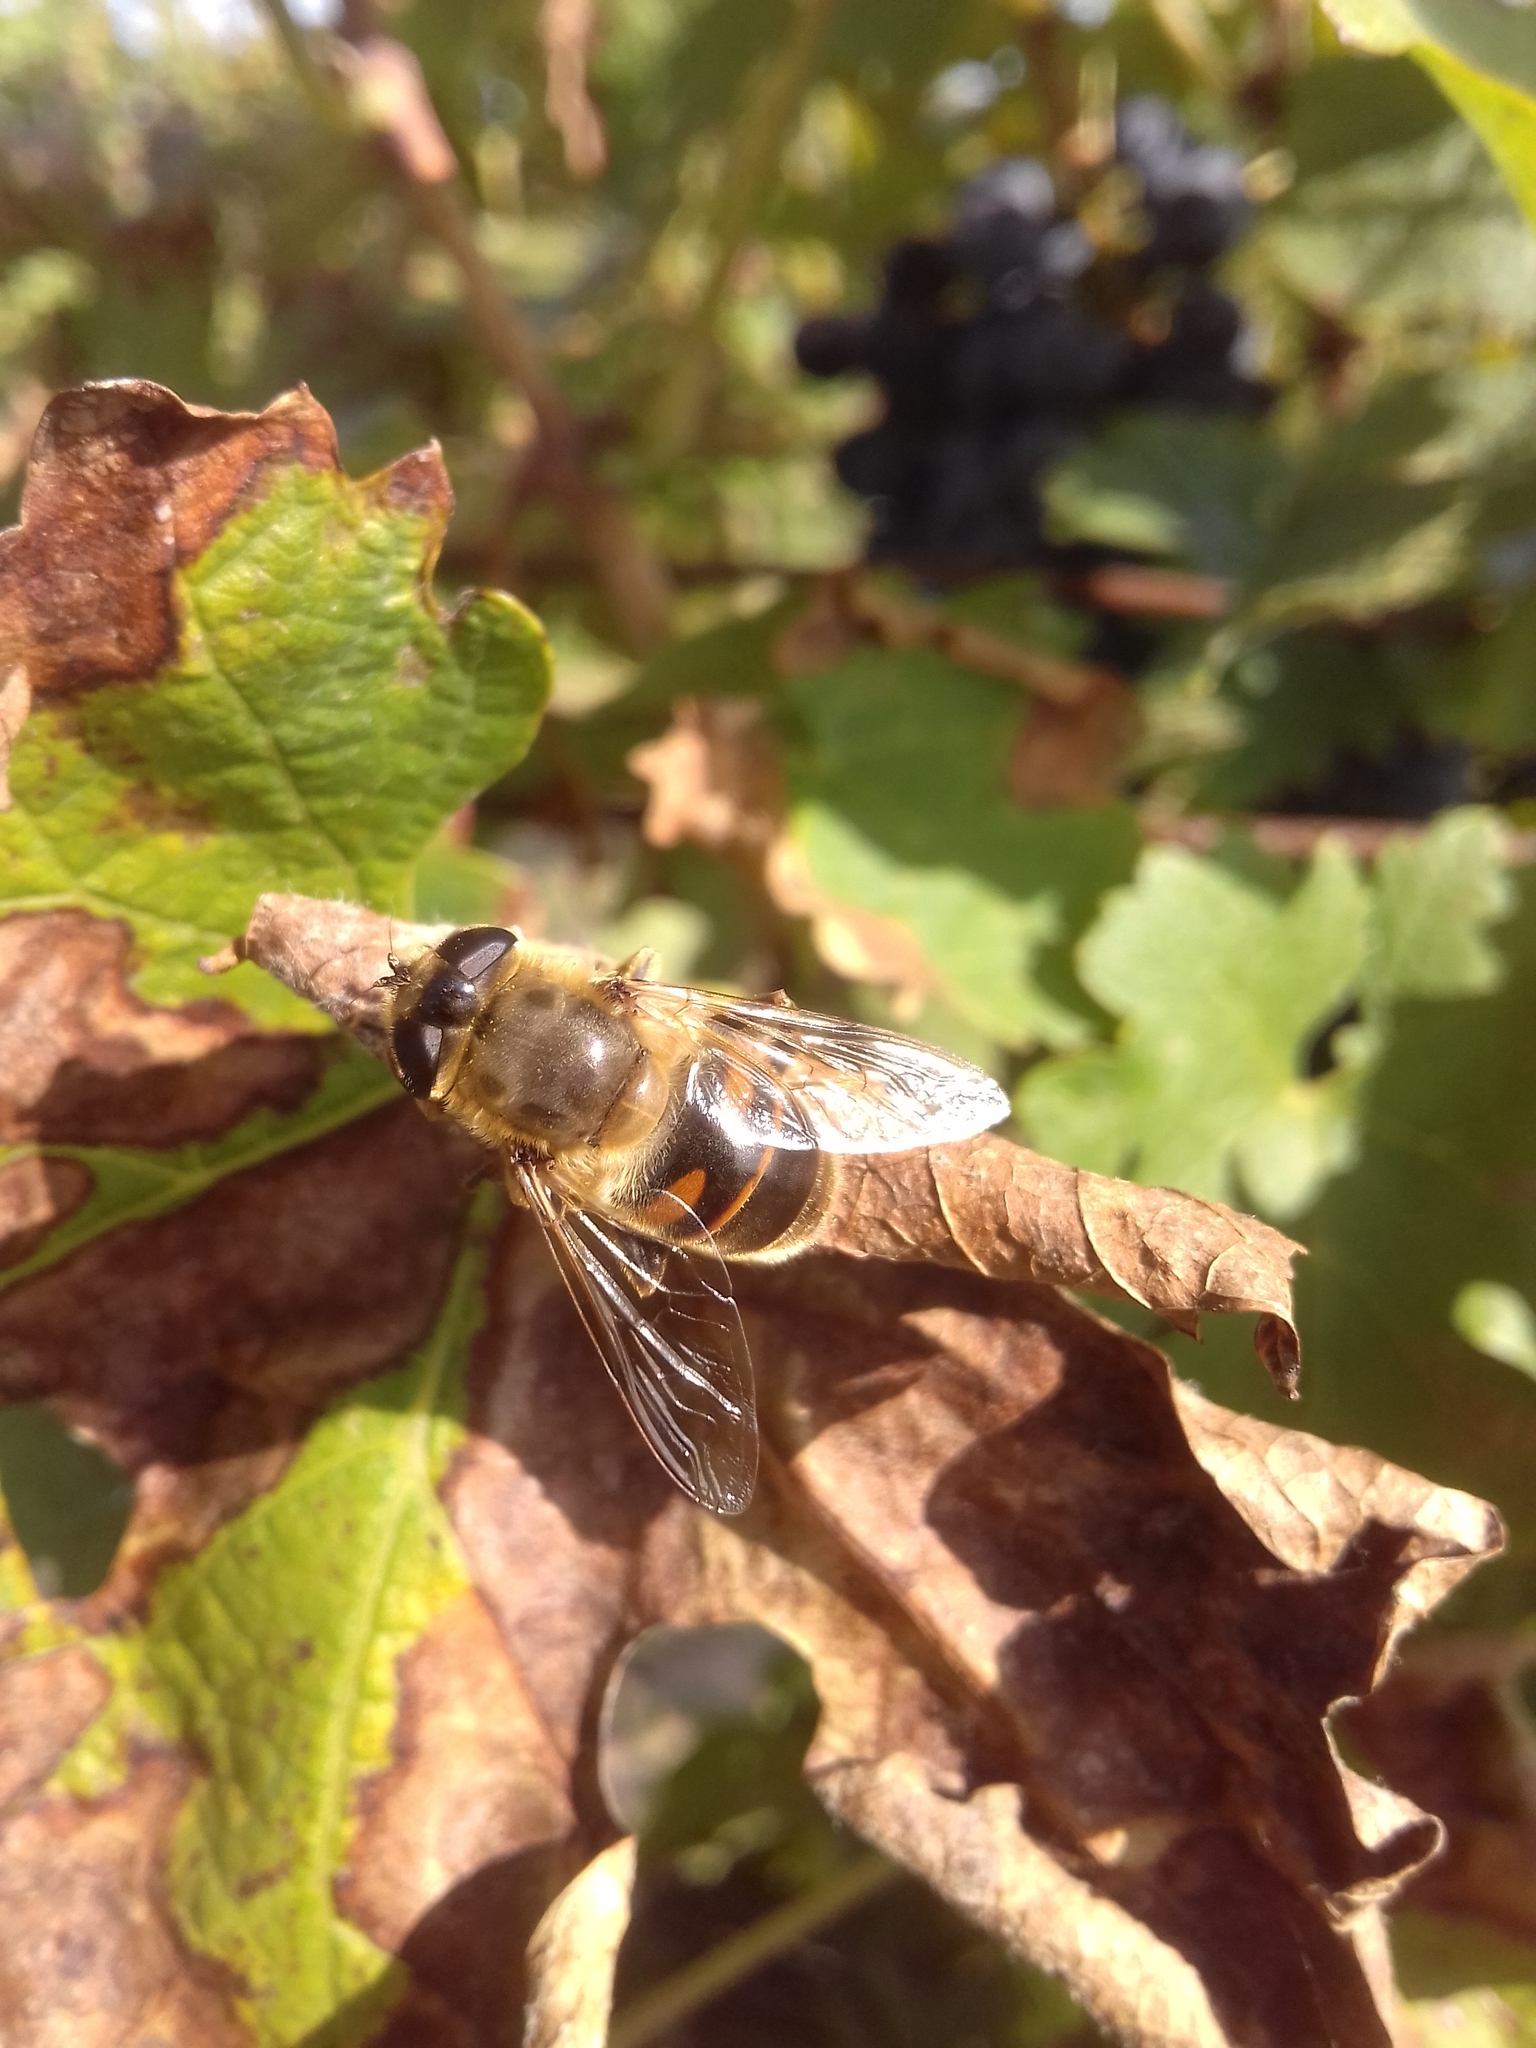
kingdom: Animalia
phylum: Arthropoda
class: Insecta
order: Diptera
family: Syrphidae
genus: Eristalis
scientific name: Eristalis tenax
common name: Drone fly
